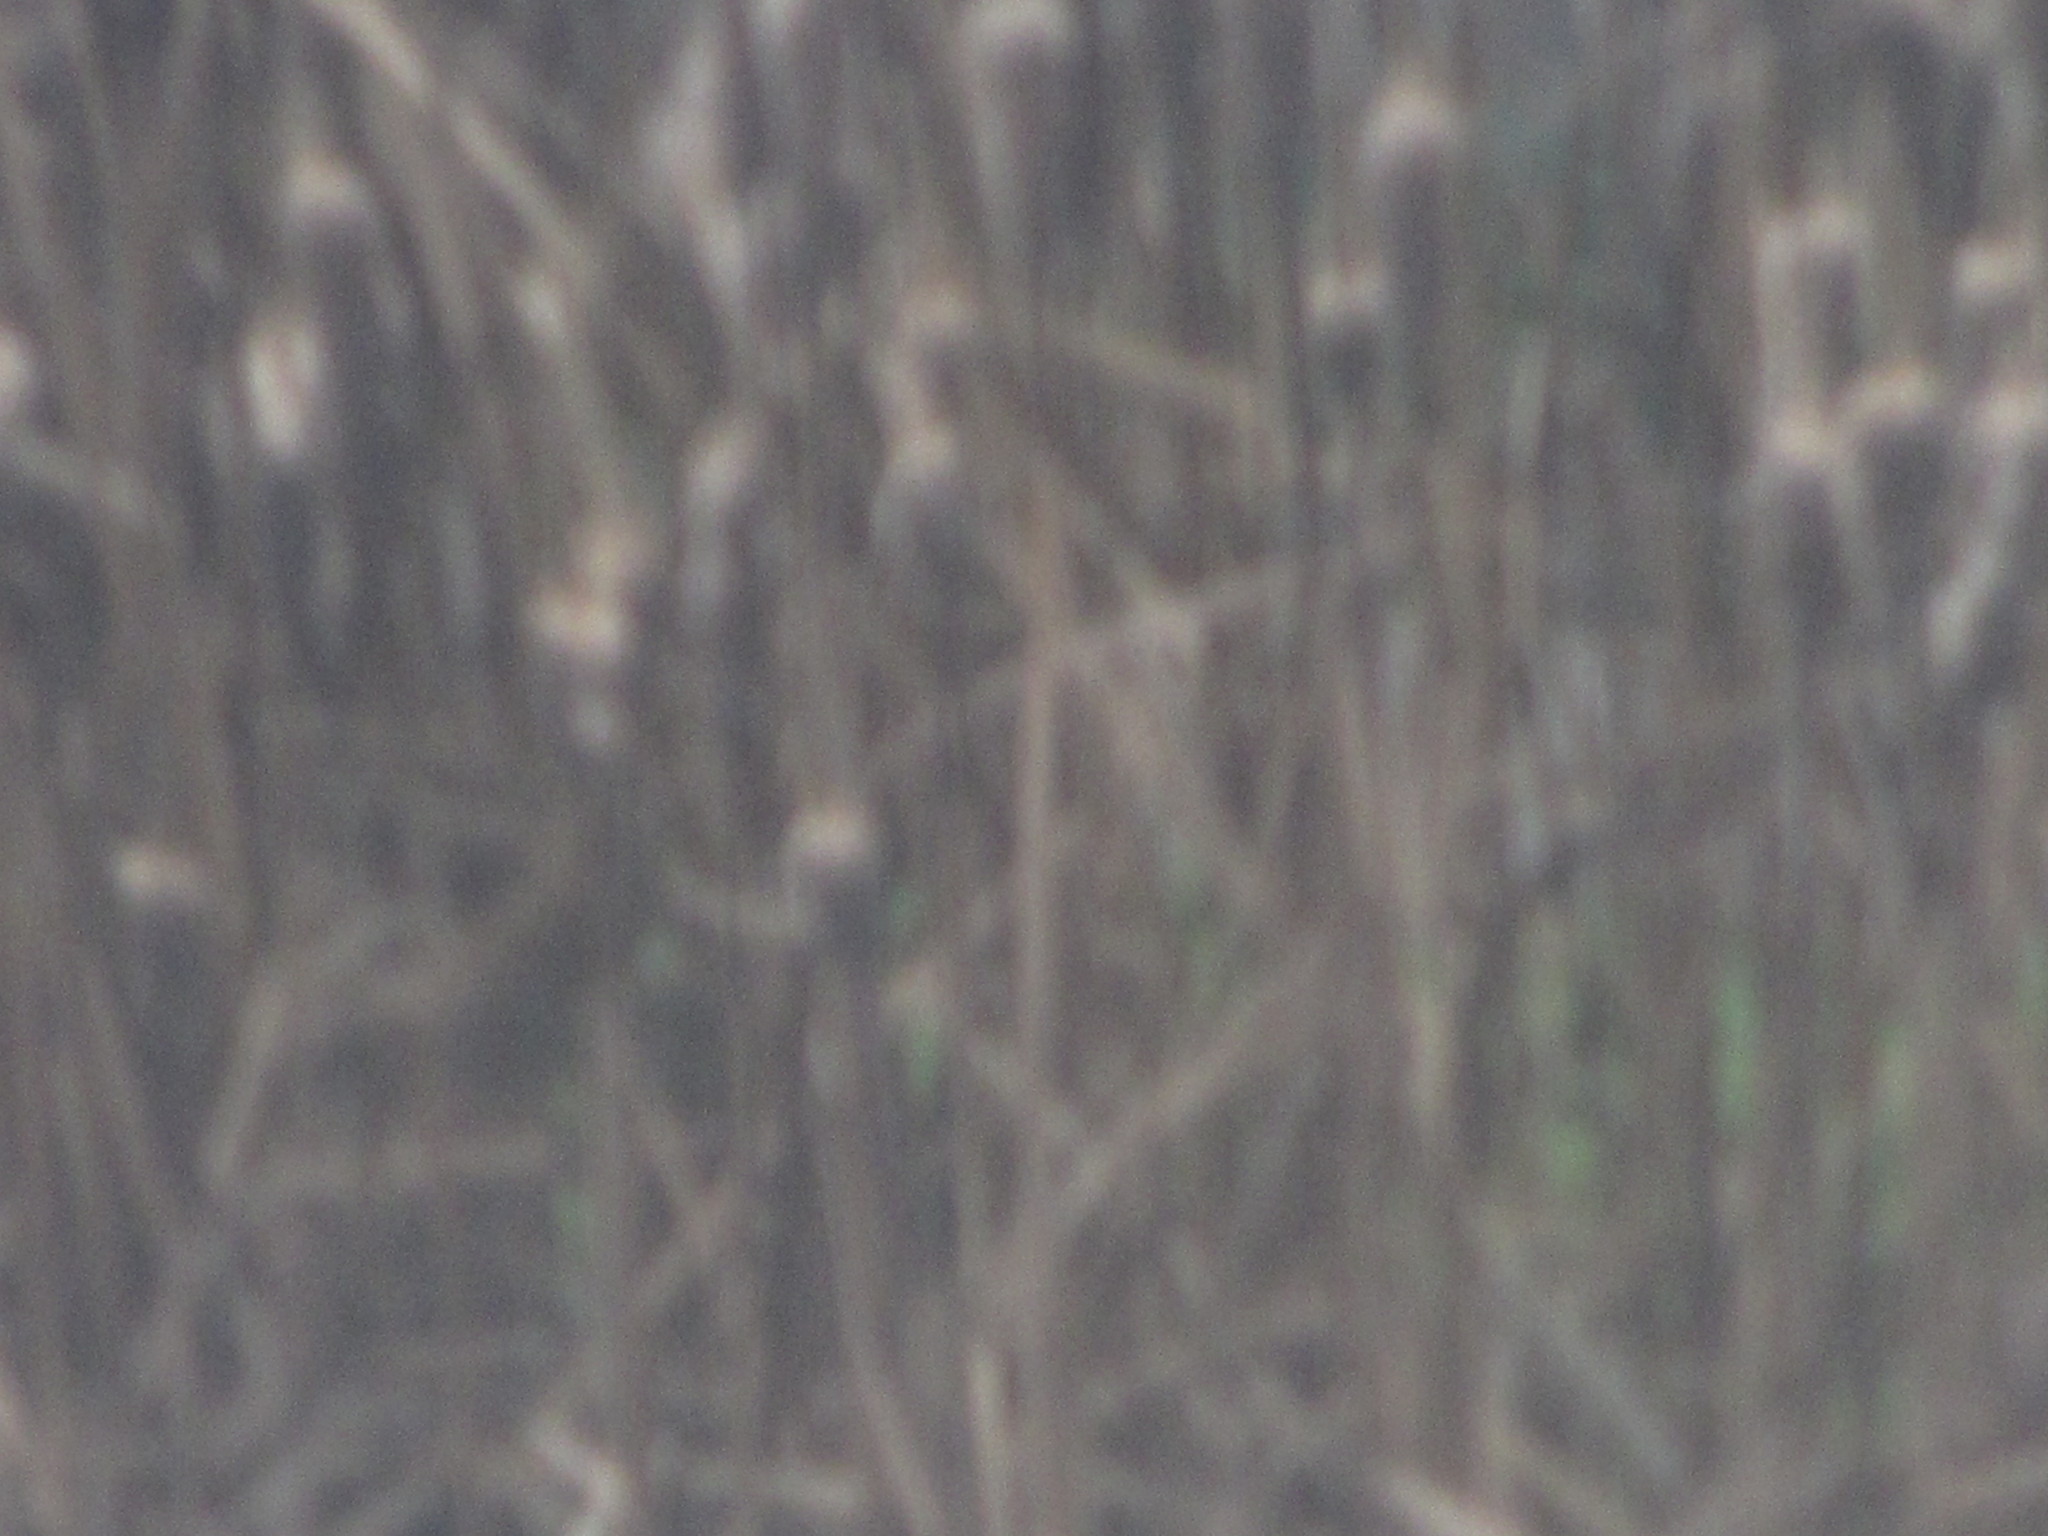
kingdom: Plantae
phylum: Tracheophyta
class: Liliopsida
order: Poales
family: Typhaceae
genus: Typha
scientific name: Typha latifolia
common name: Broadleaf cattail
